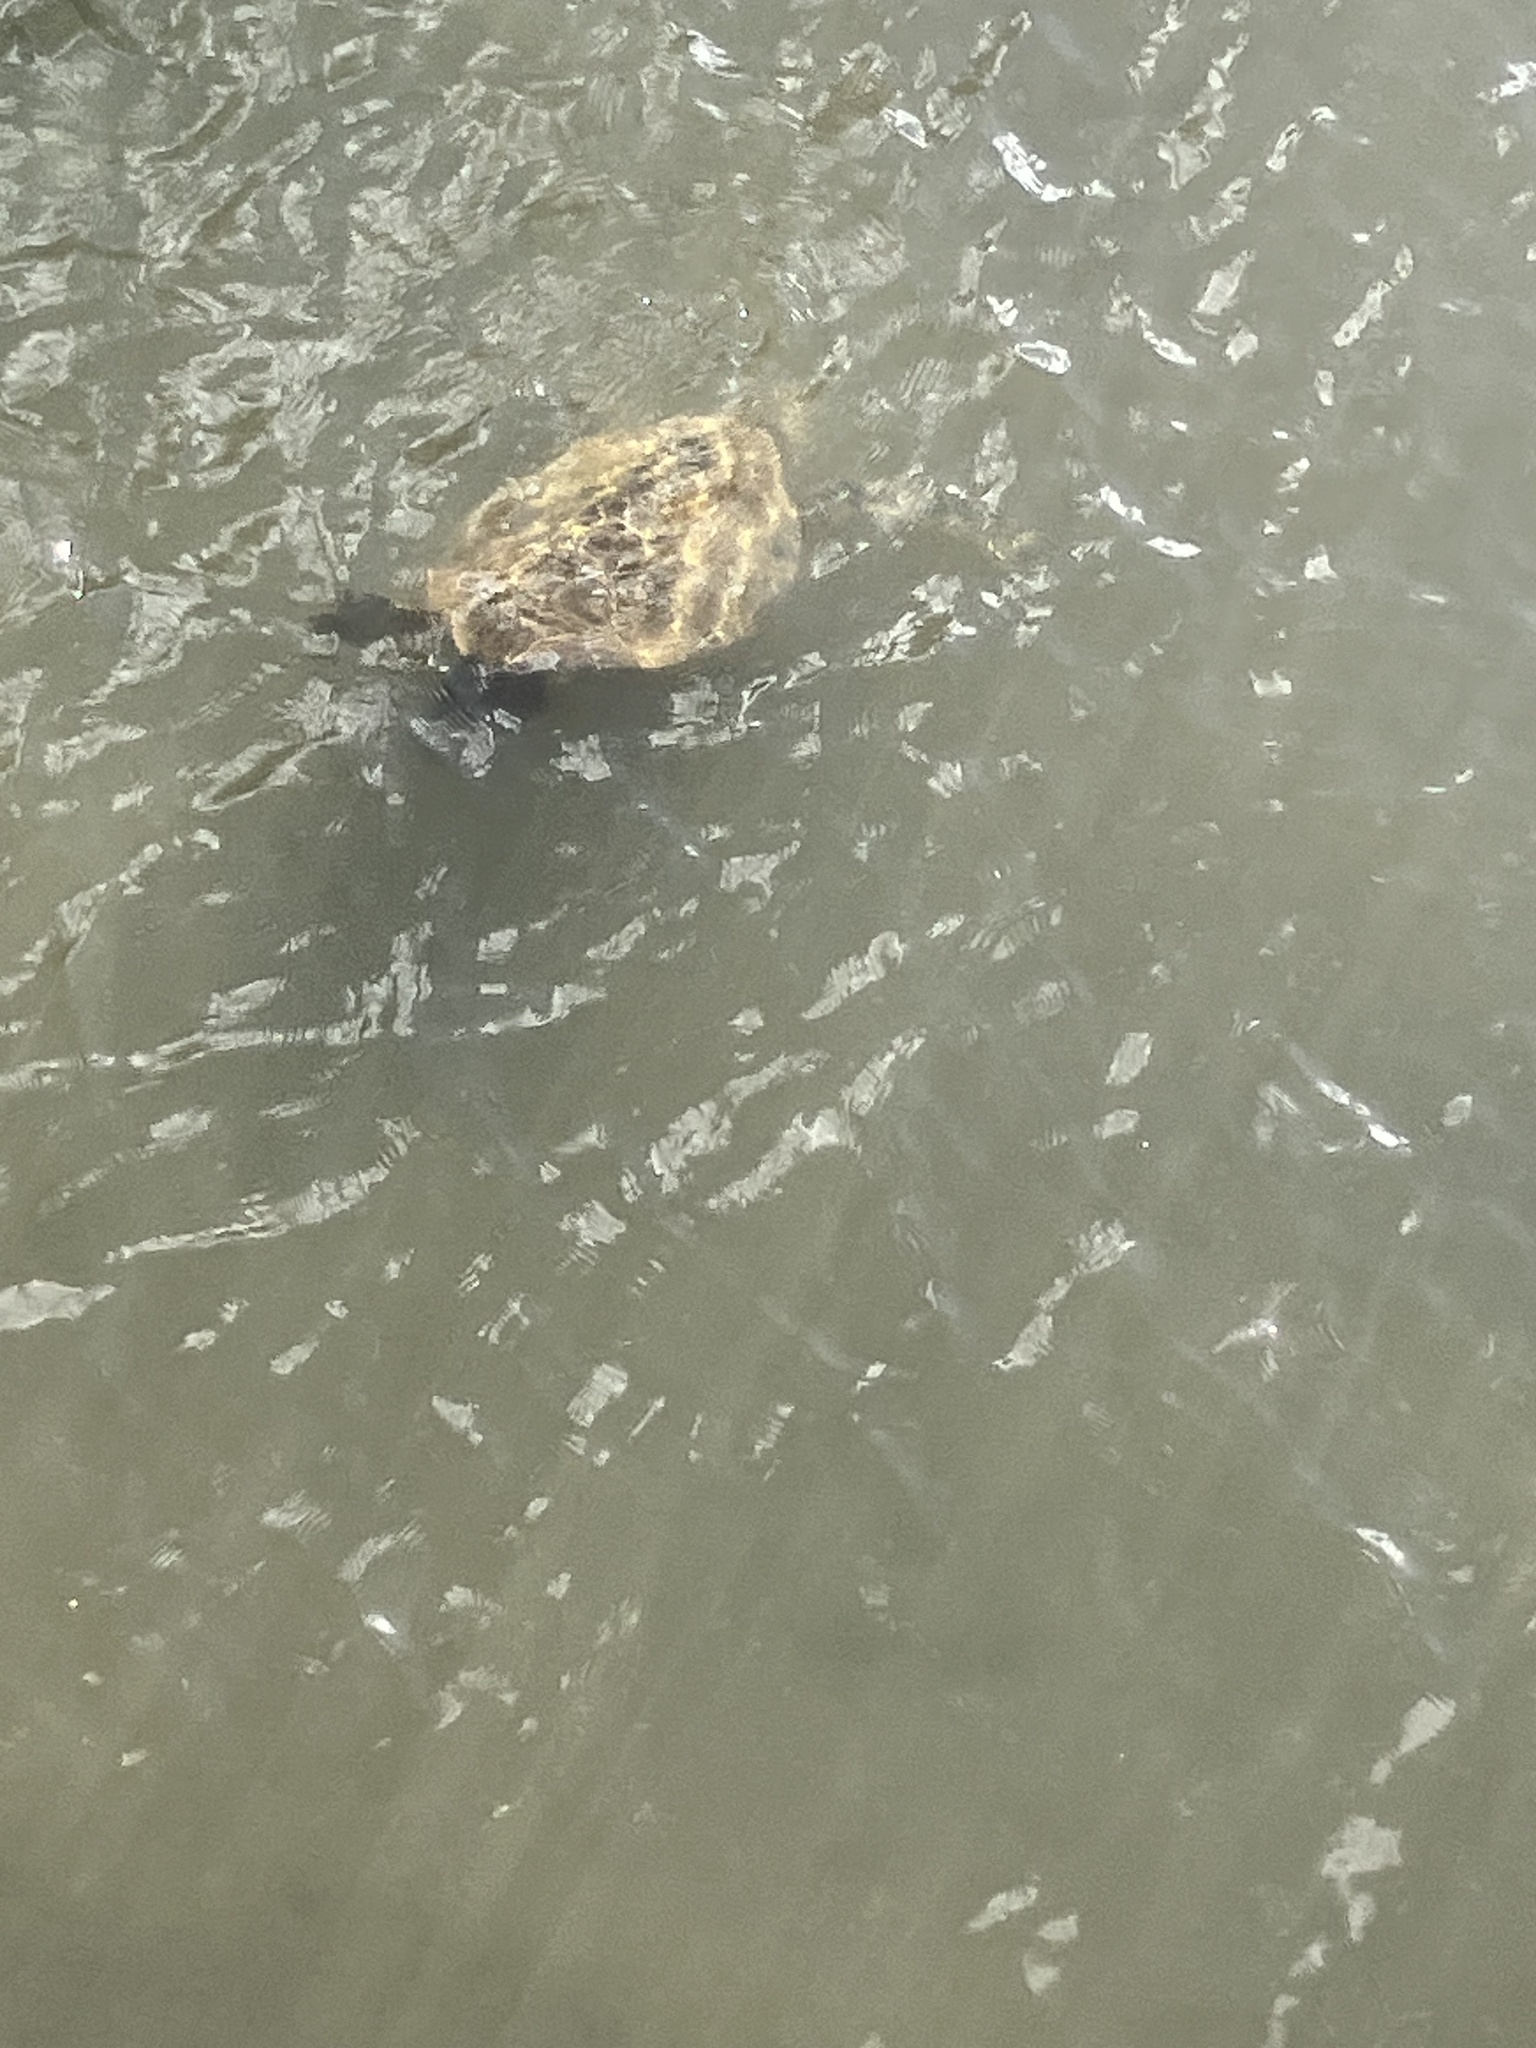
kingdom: Animalia
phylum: Chordata
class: Testudines
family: Cheloniidae
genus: Chelonia
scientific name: Chelonia mydas
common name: Green turtle
